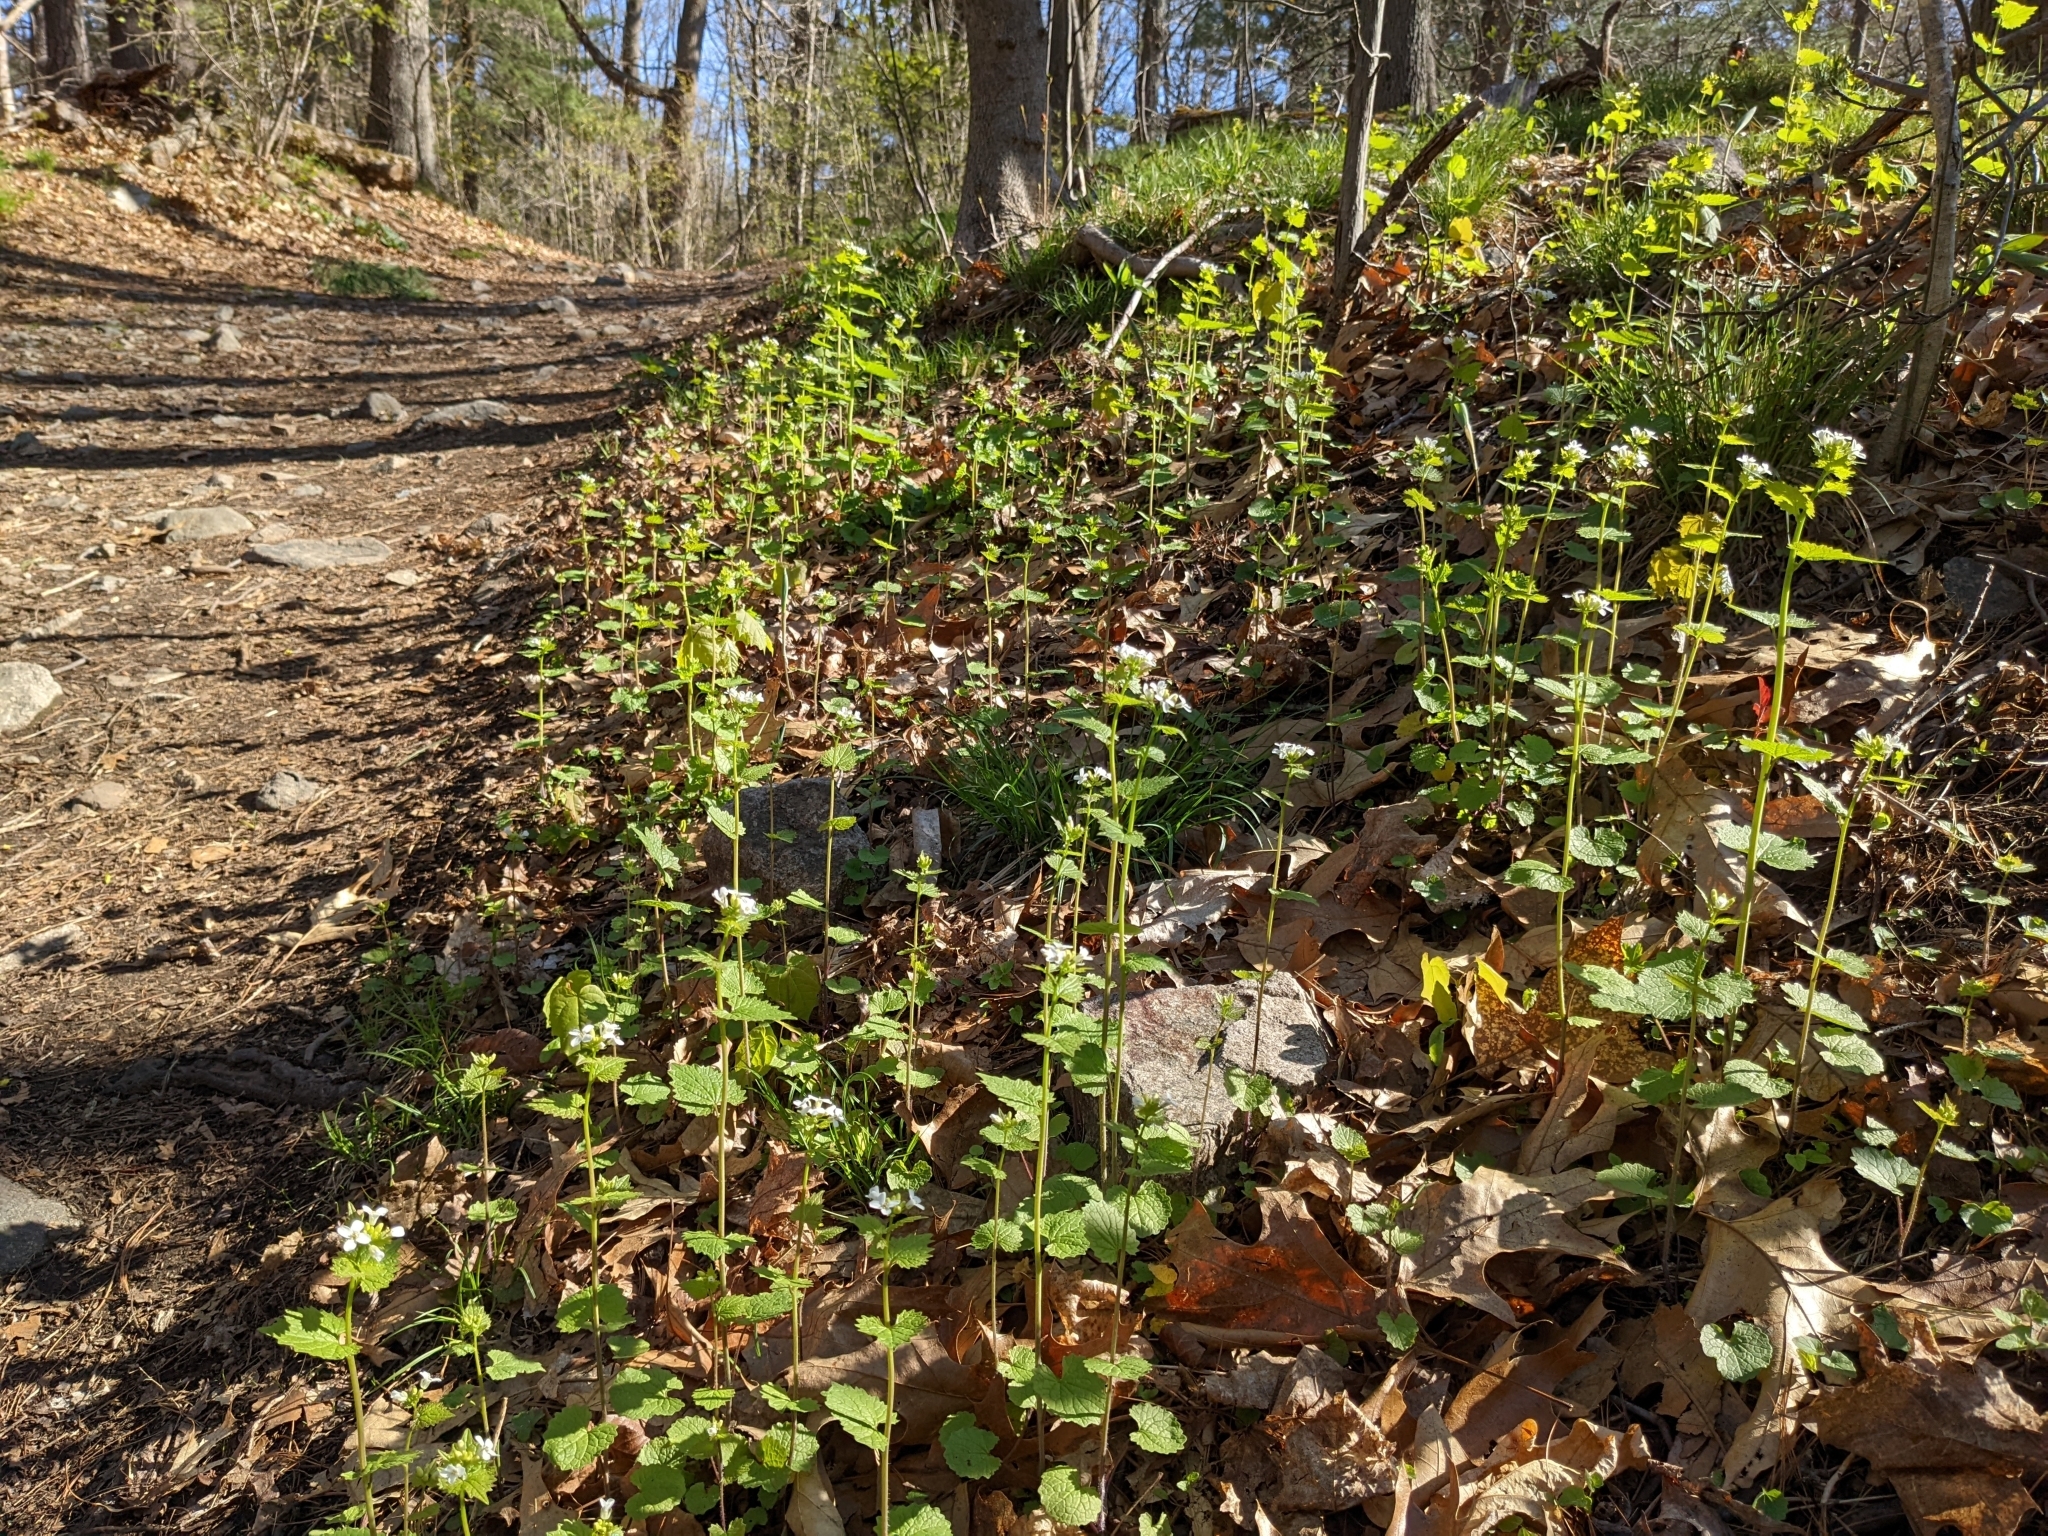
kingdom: Plantae
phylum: Tracheophyta
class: Magnoliopsida
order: Brassicales
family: Brassicaceae
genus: Alliaria
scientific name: Alliaria petiolata
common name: Garlic mustard
